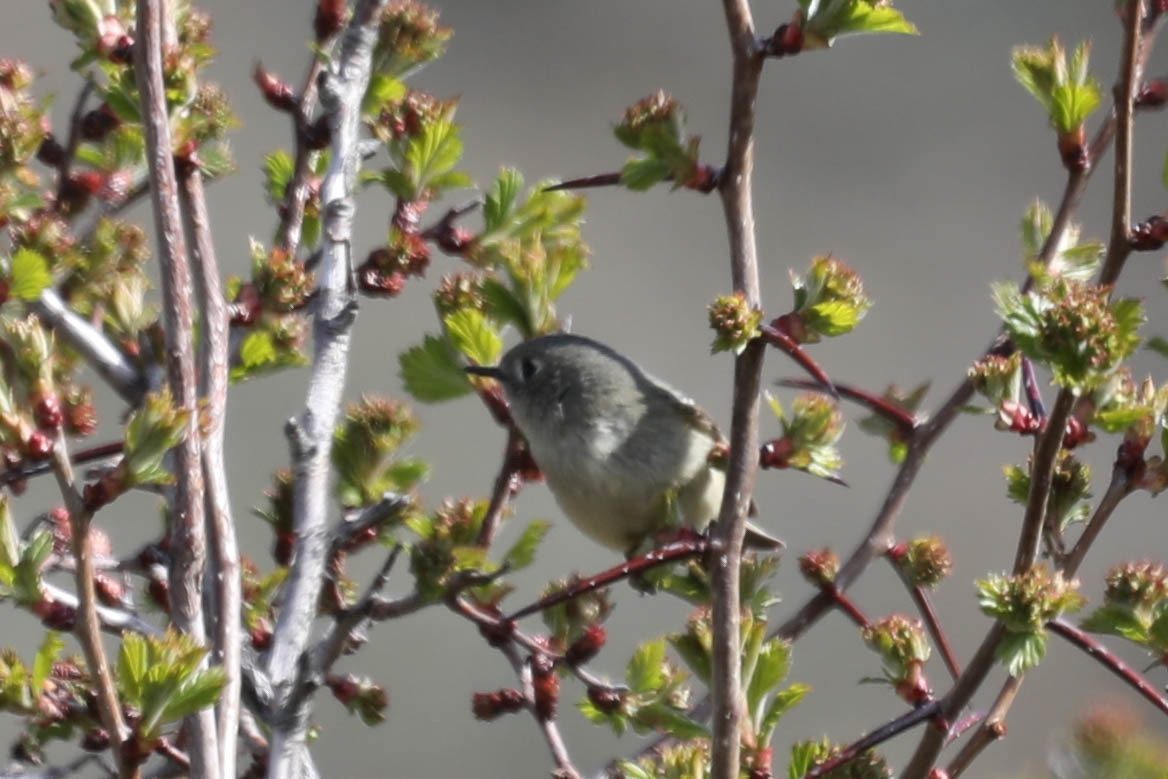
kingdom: Animalia
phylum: Chordata
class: Aves
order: Passeriformes
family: Regulidae
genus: Regulus
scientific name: Regulus calendula
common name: Ruby-crowned kinglet
